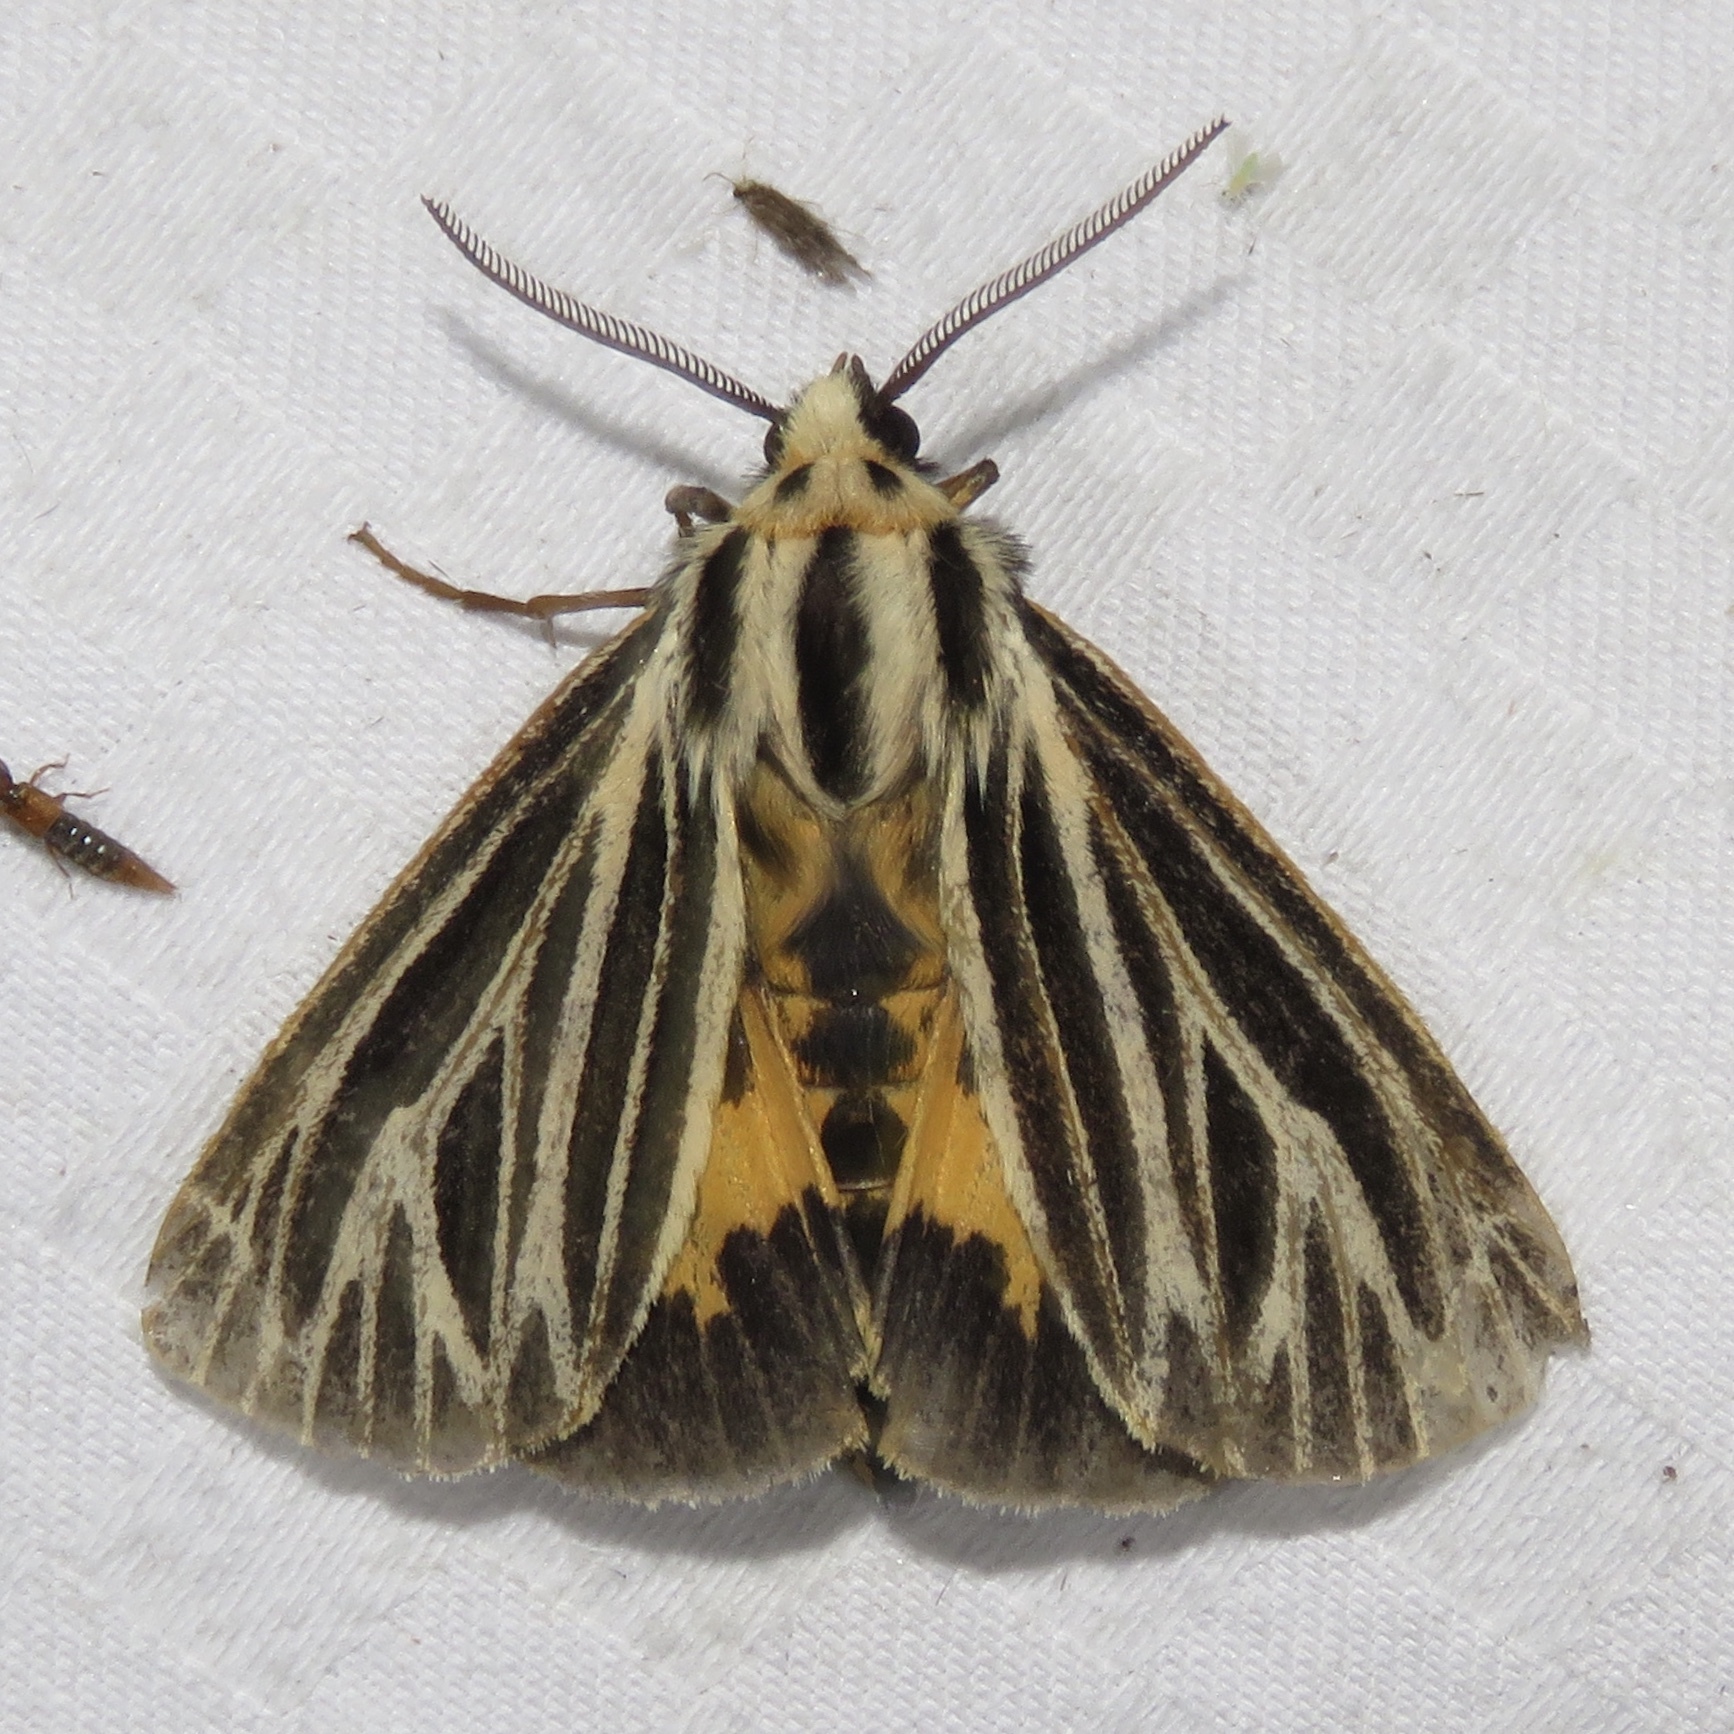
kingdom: Animalia
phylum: Arthropoda
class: Insecta
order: Lepidoptera
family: Erebidae
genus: Grammia
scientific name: Grammia virguncula
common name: Little tiger moth
